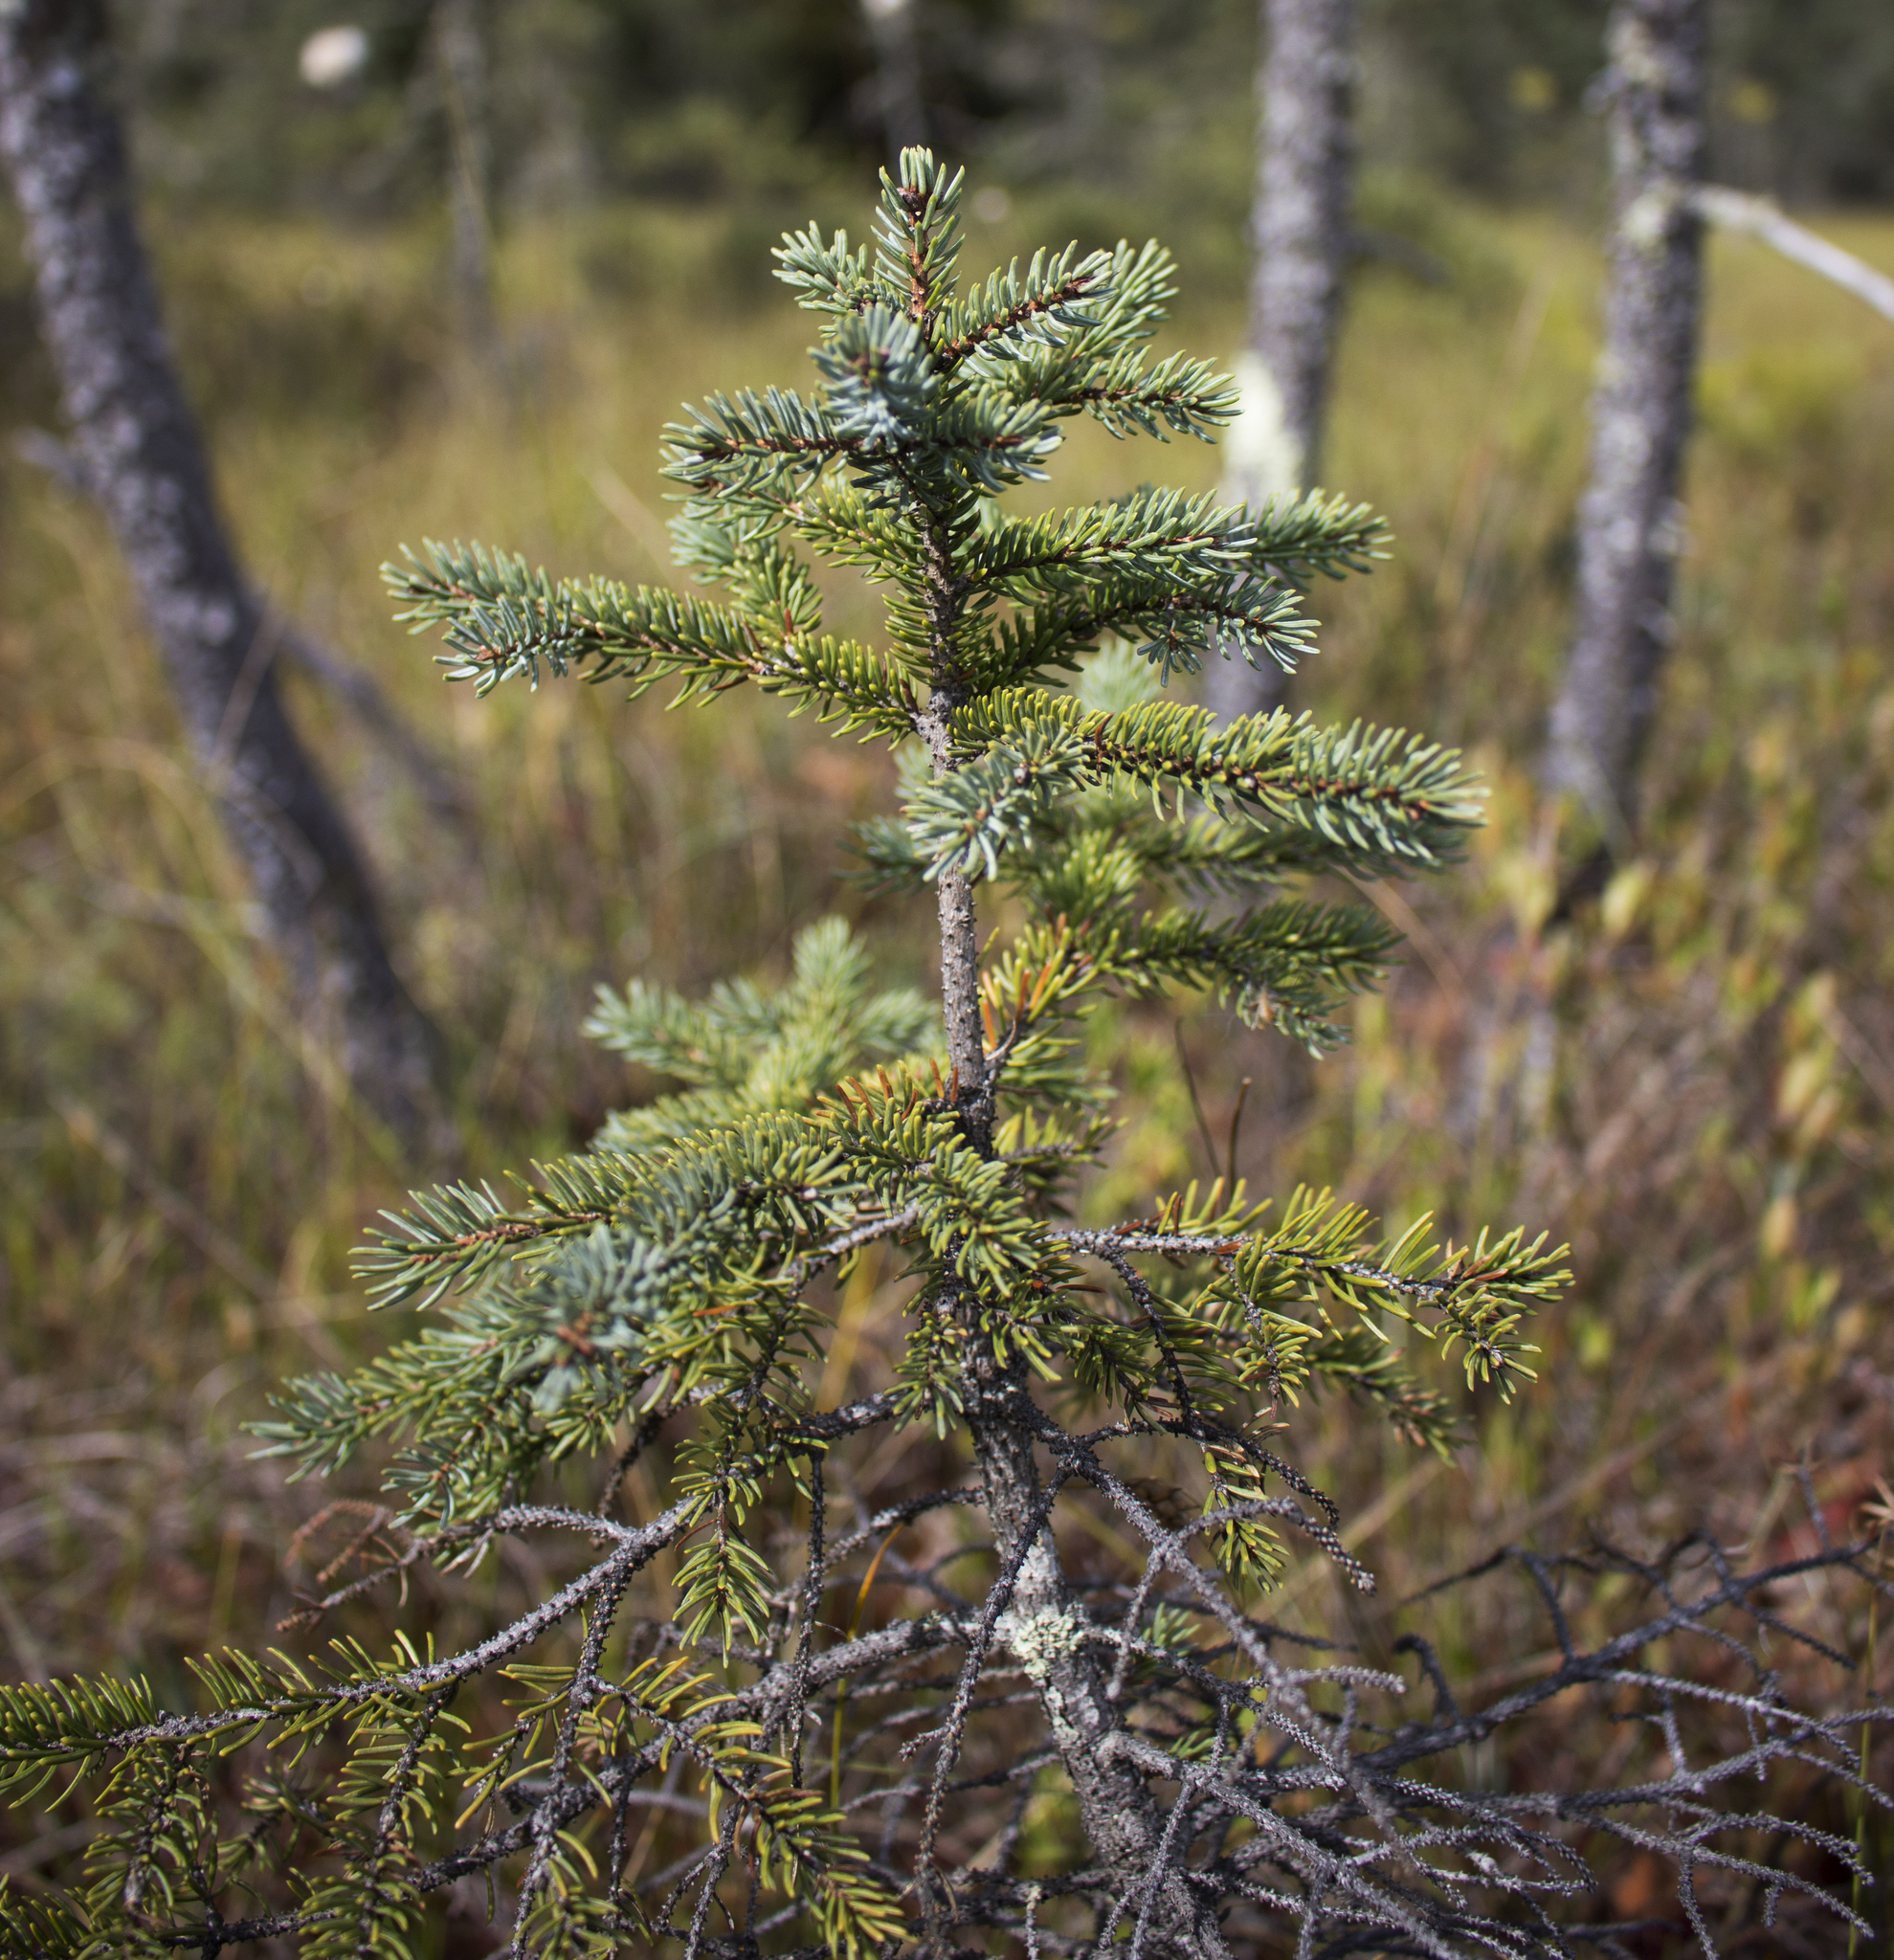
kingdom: Plantae
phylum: Tracheophyta
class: Pinopsida
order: Pinales
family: Pinaceae
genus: Picea
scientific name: Picea mariana
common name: Black spruce
